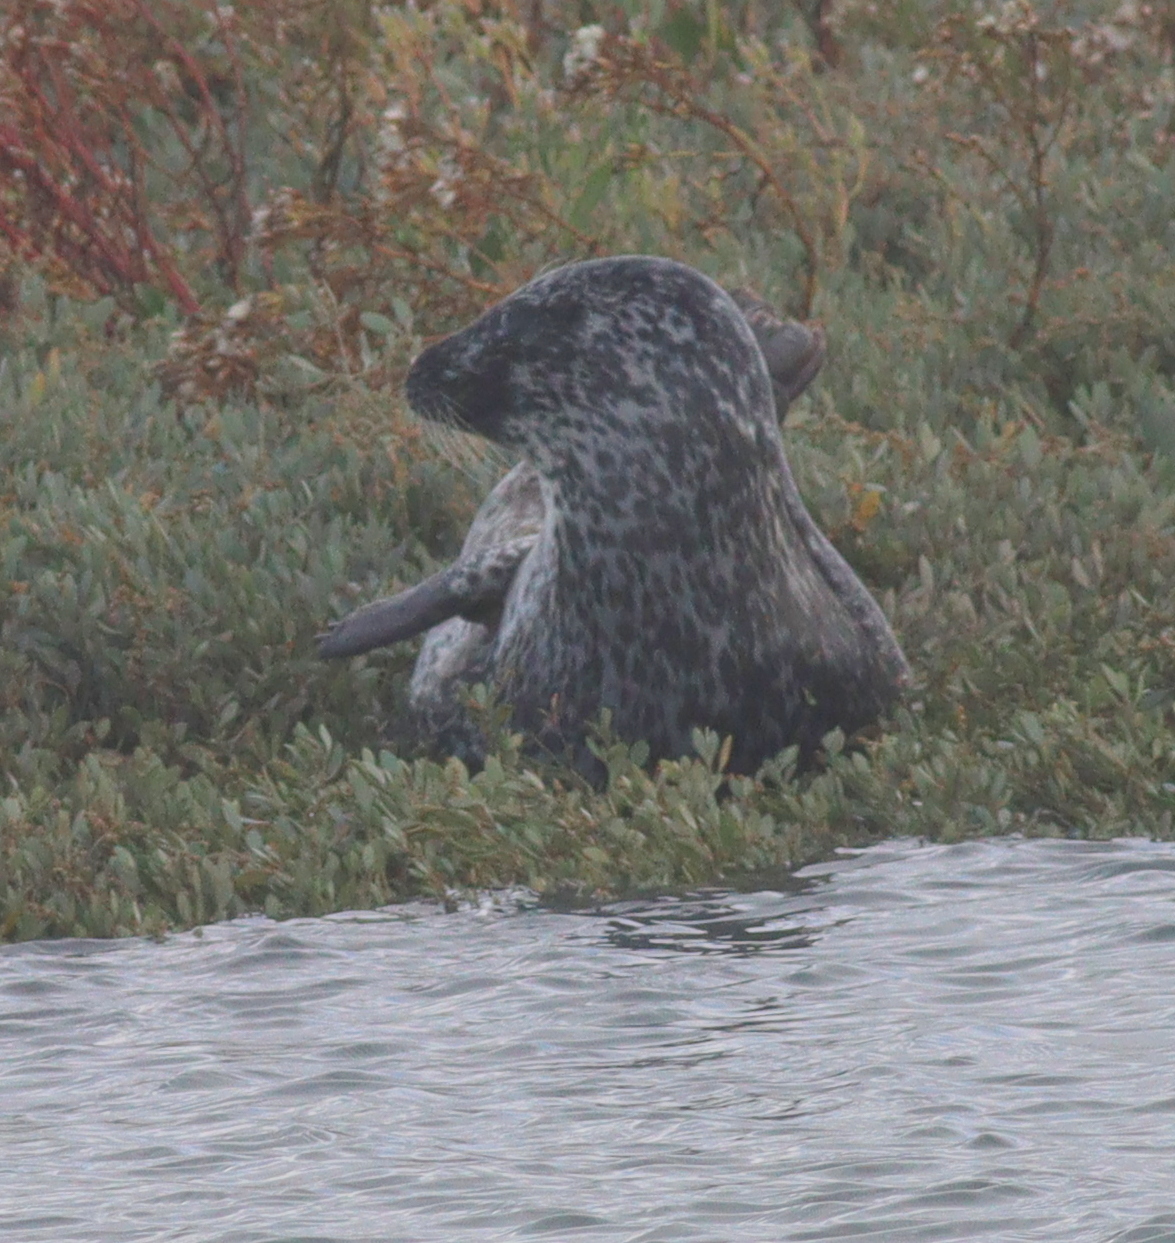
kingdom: Animalia
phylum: Chordata
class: Mammalia
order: Carnivora
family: Phocidae
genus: Phoca
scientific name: Phoca vitulina
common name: Harbor seal
